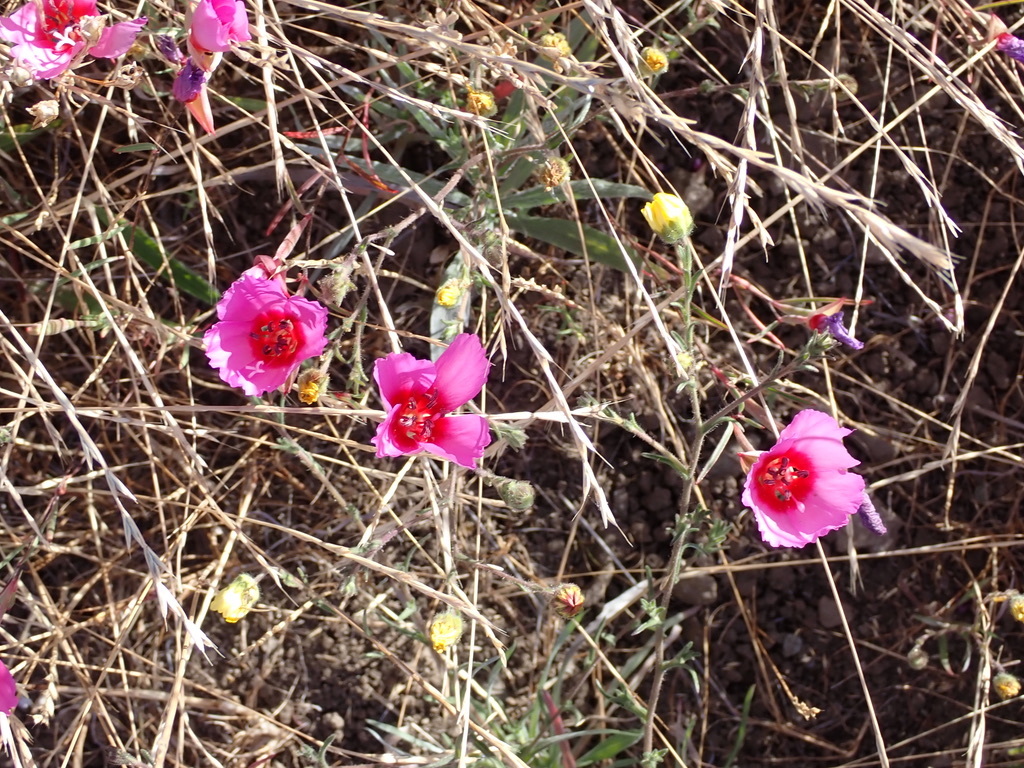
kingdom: Plantae
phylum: Tracheophyta
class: Magnoliopsida
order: Myrtales
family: Onagraceae
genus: Clarkia
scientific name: Clarkia rubicunda
